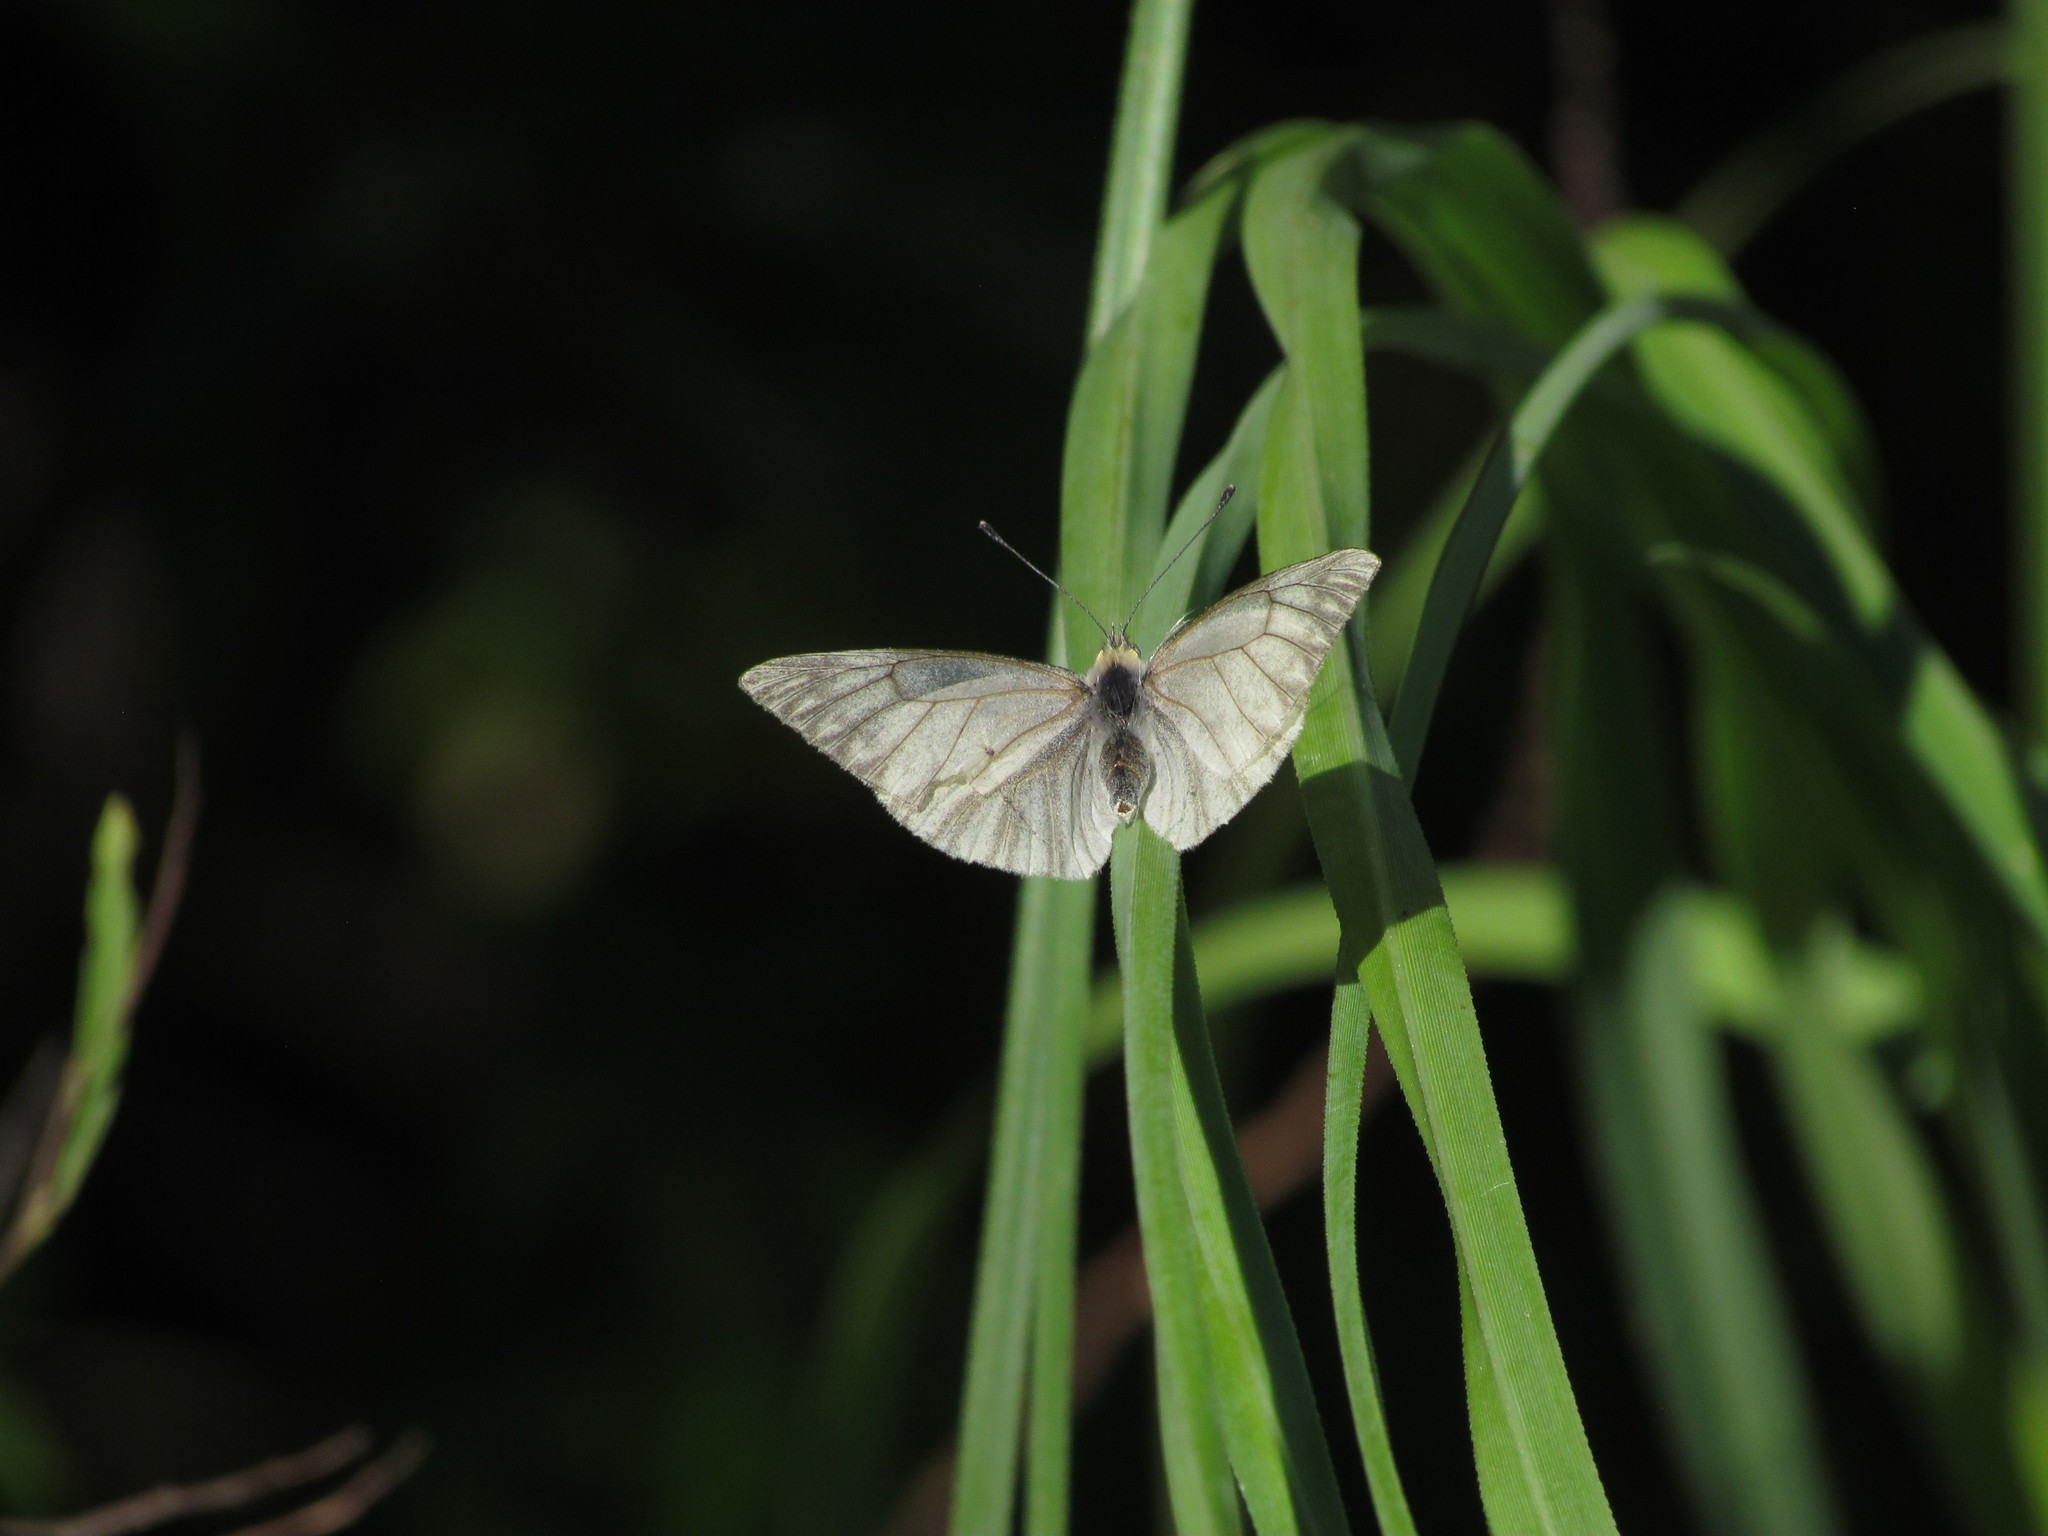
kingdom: Animalia
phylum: Arthropoda
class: Insecta
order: Lepidoptera
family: Pieridae
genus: Theochila
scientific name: Theochila maenacte
